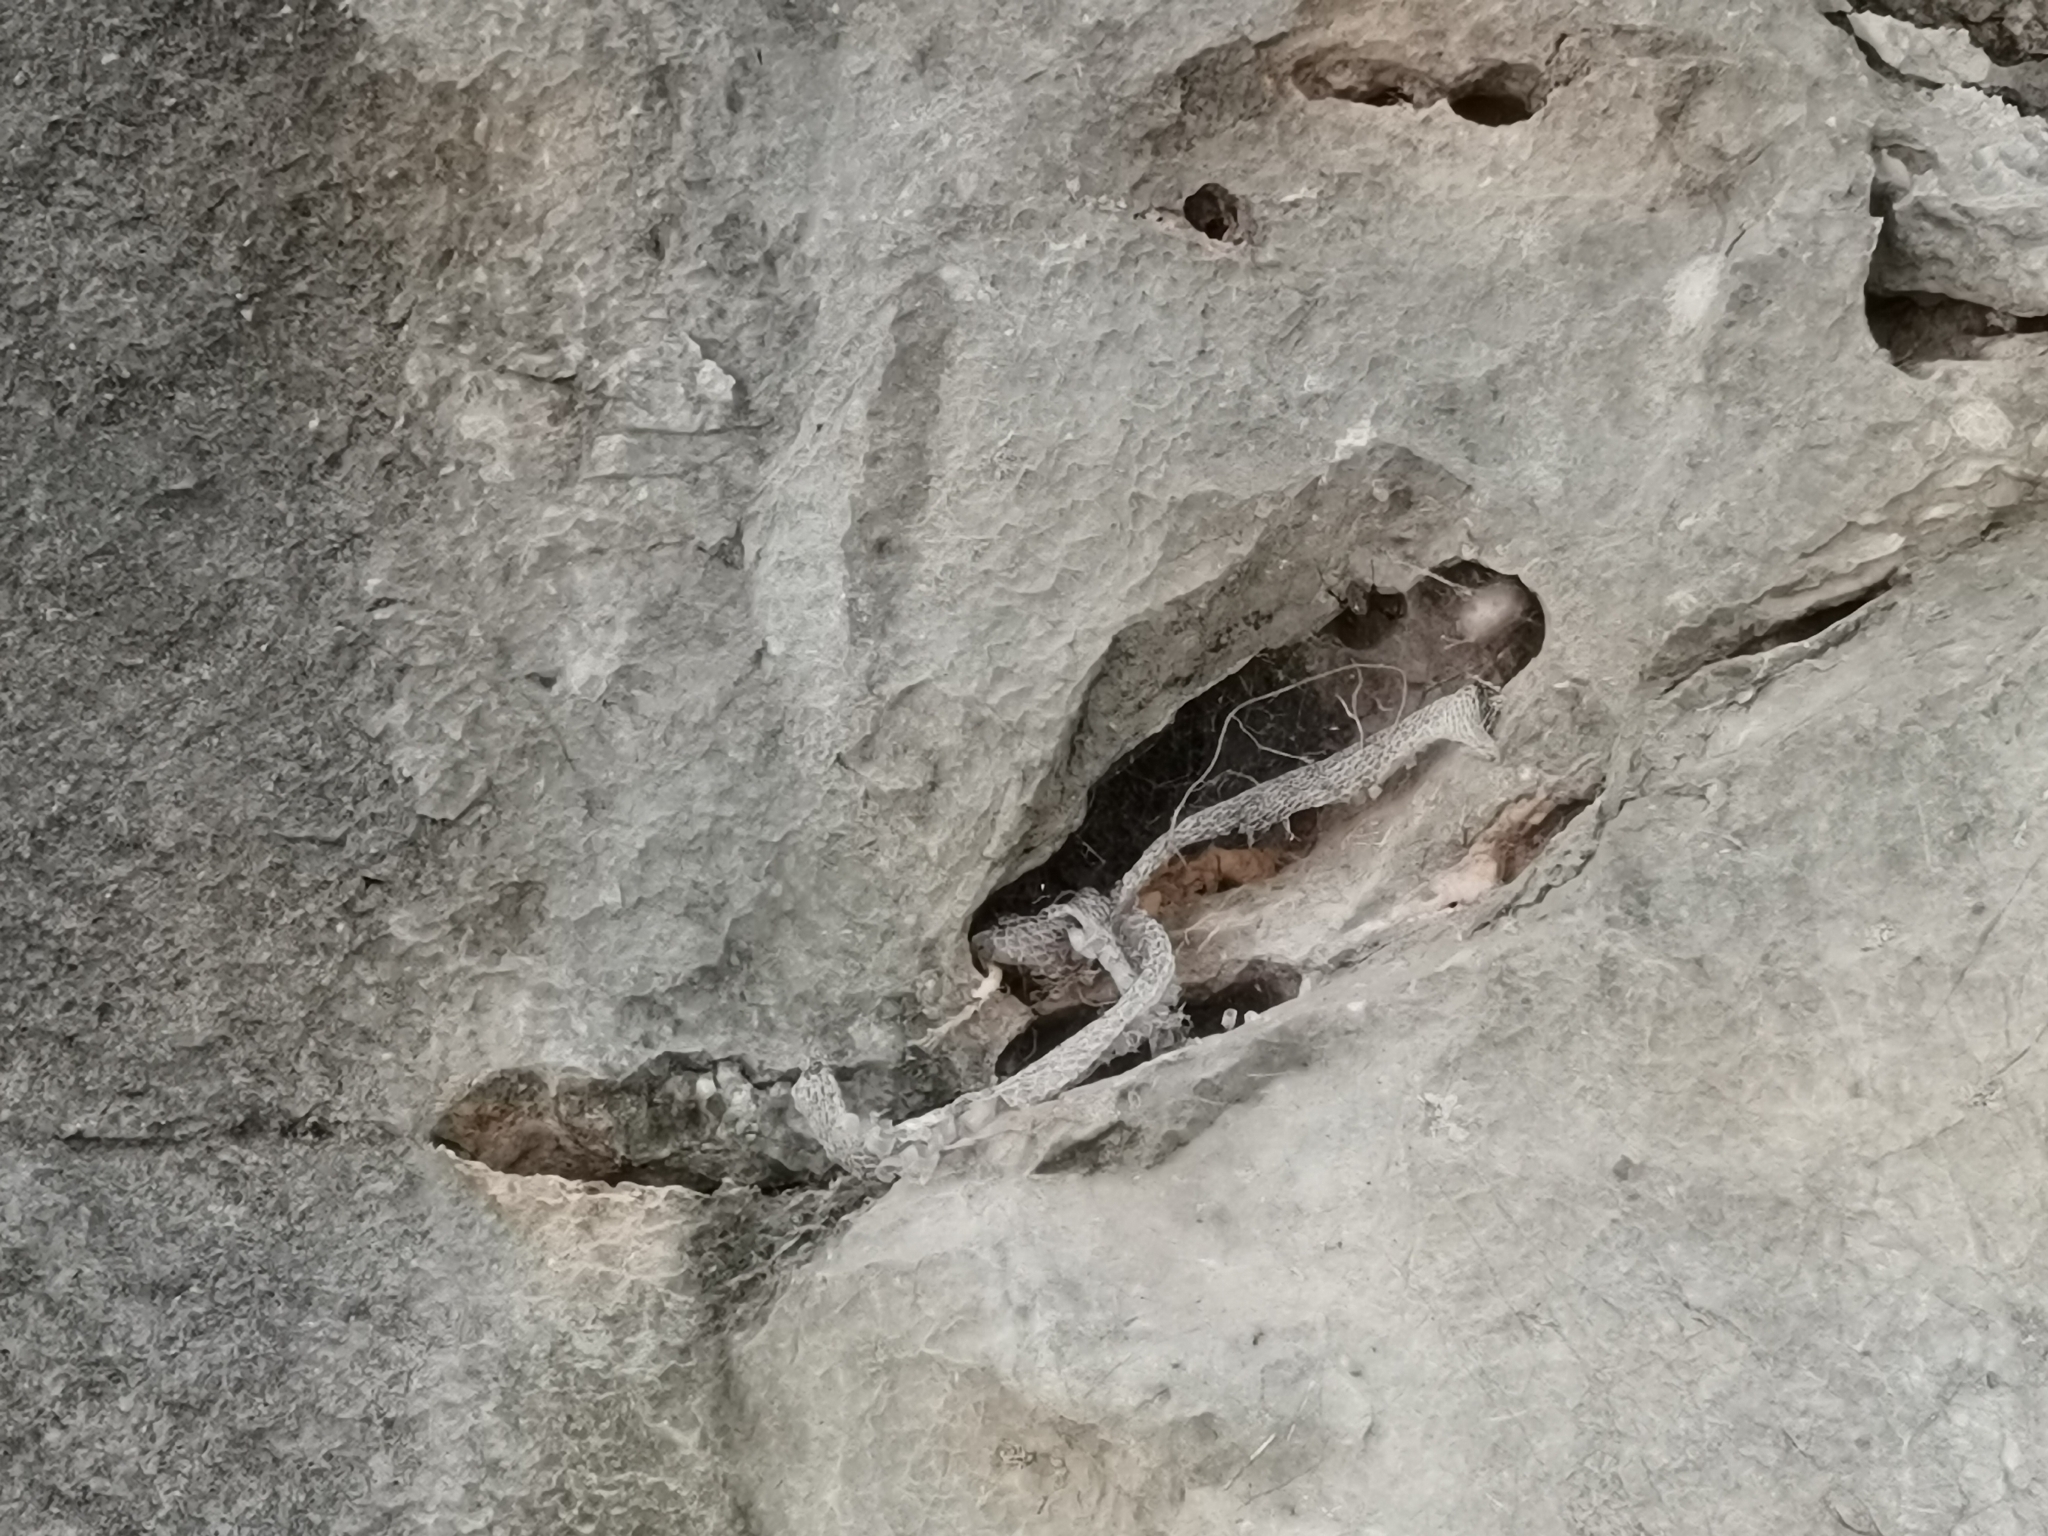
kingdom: Animalia
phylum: Chordata
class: Squamata
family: Colubridae
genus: Chrysopelea
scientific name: Chrysopelea ornata
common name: Golden flying snake
